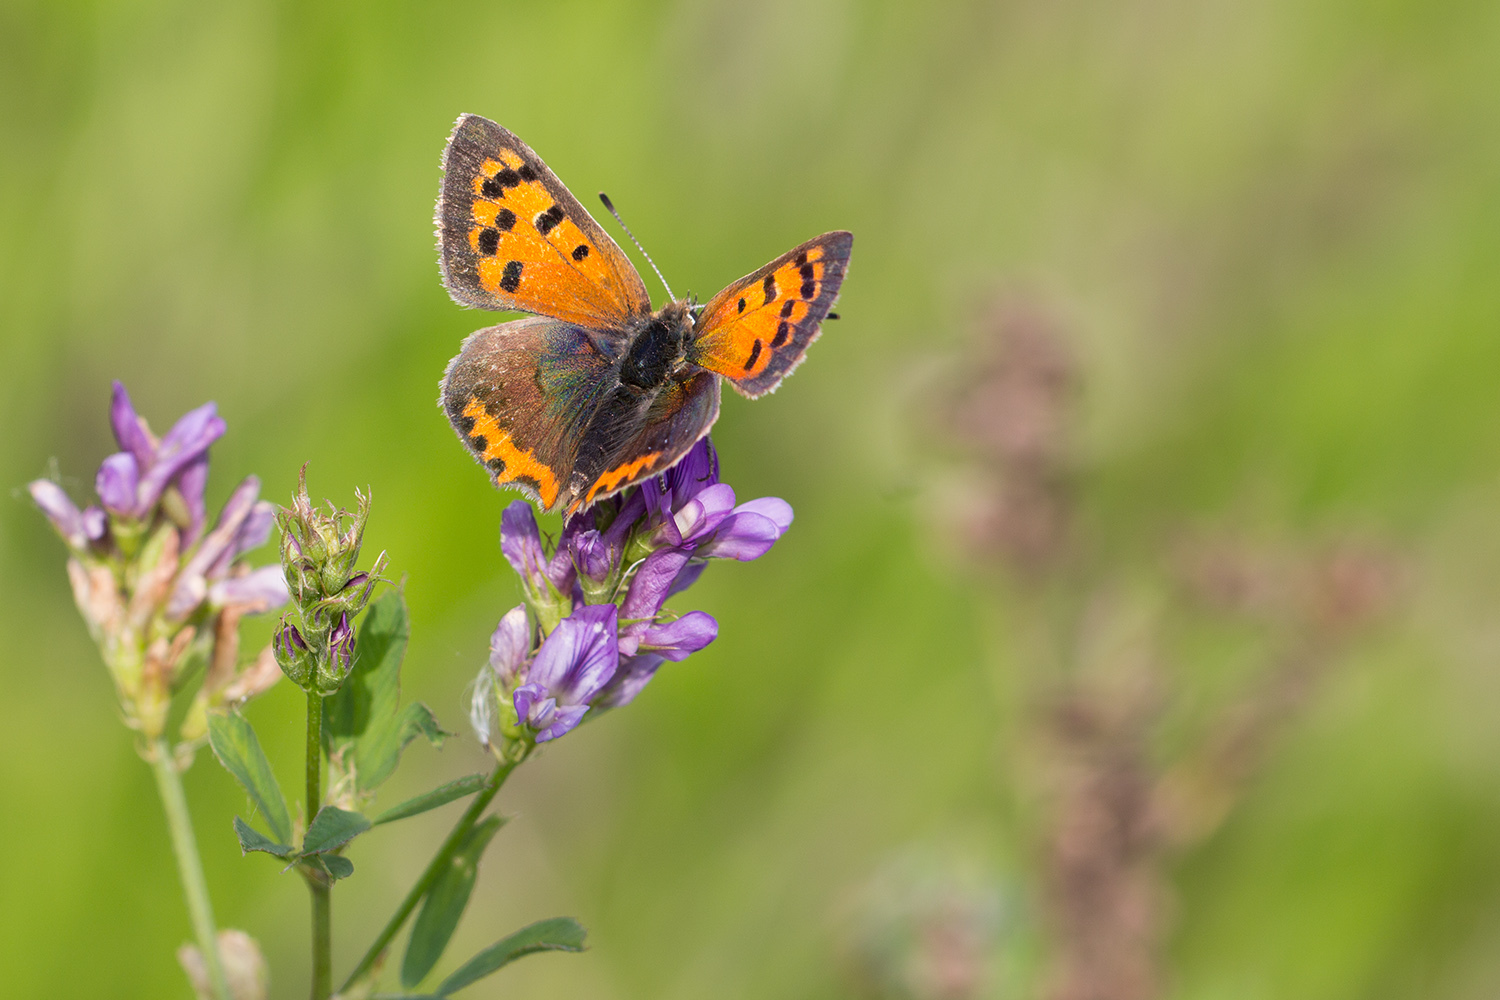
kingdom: Animalia
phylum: Arthropoda
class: Insecta
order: Lepidoptera
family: Lycaenidae
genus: Lycaena
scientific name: Lycaena phlaeas
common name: Small copper
